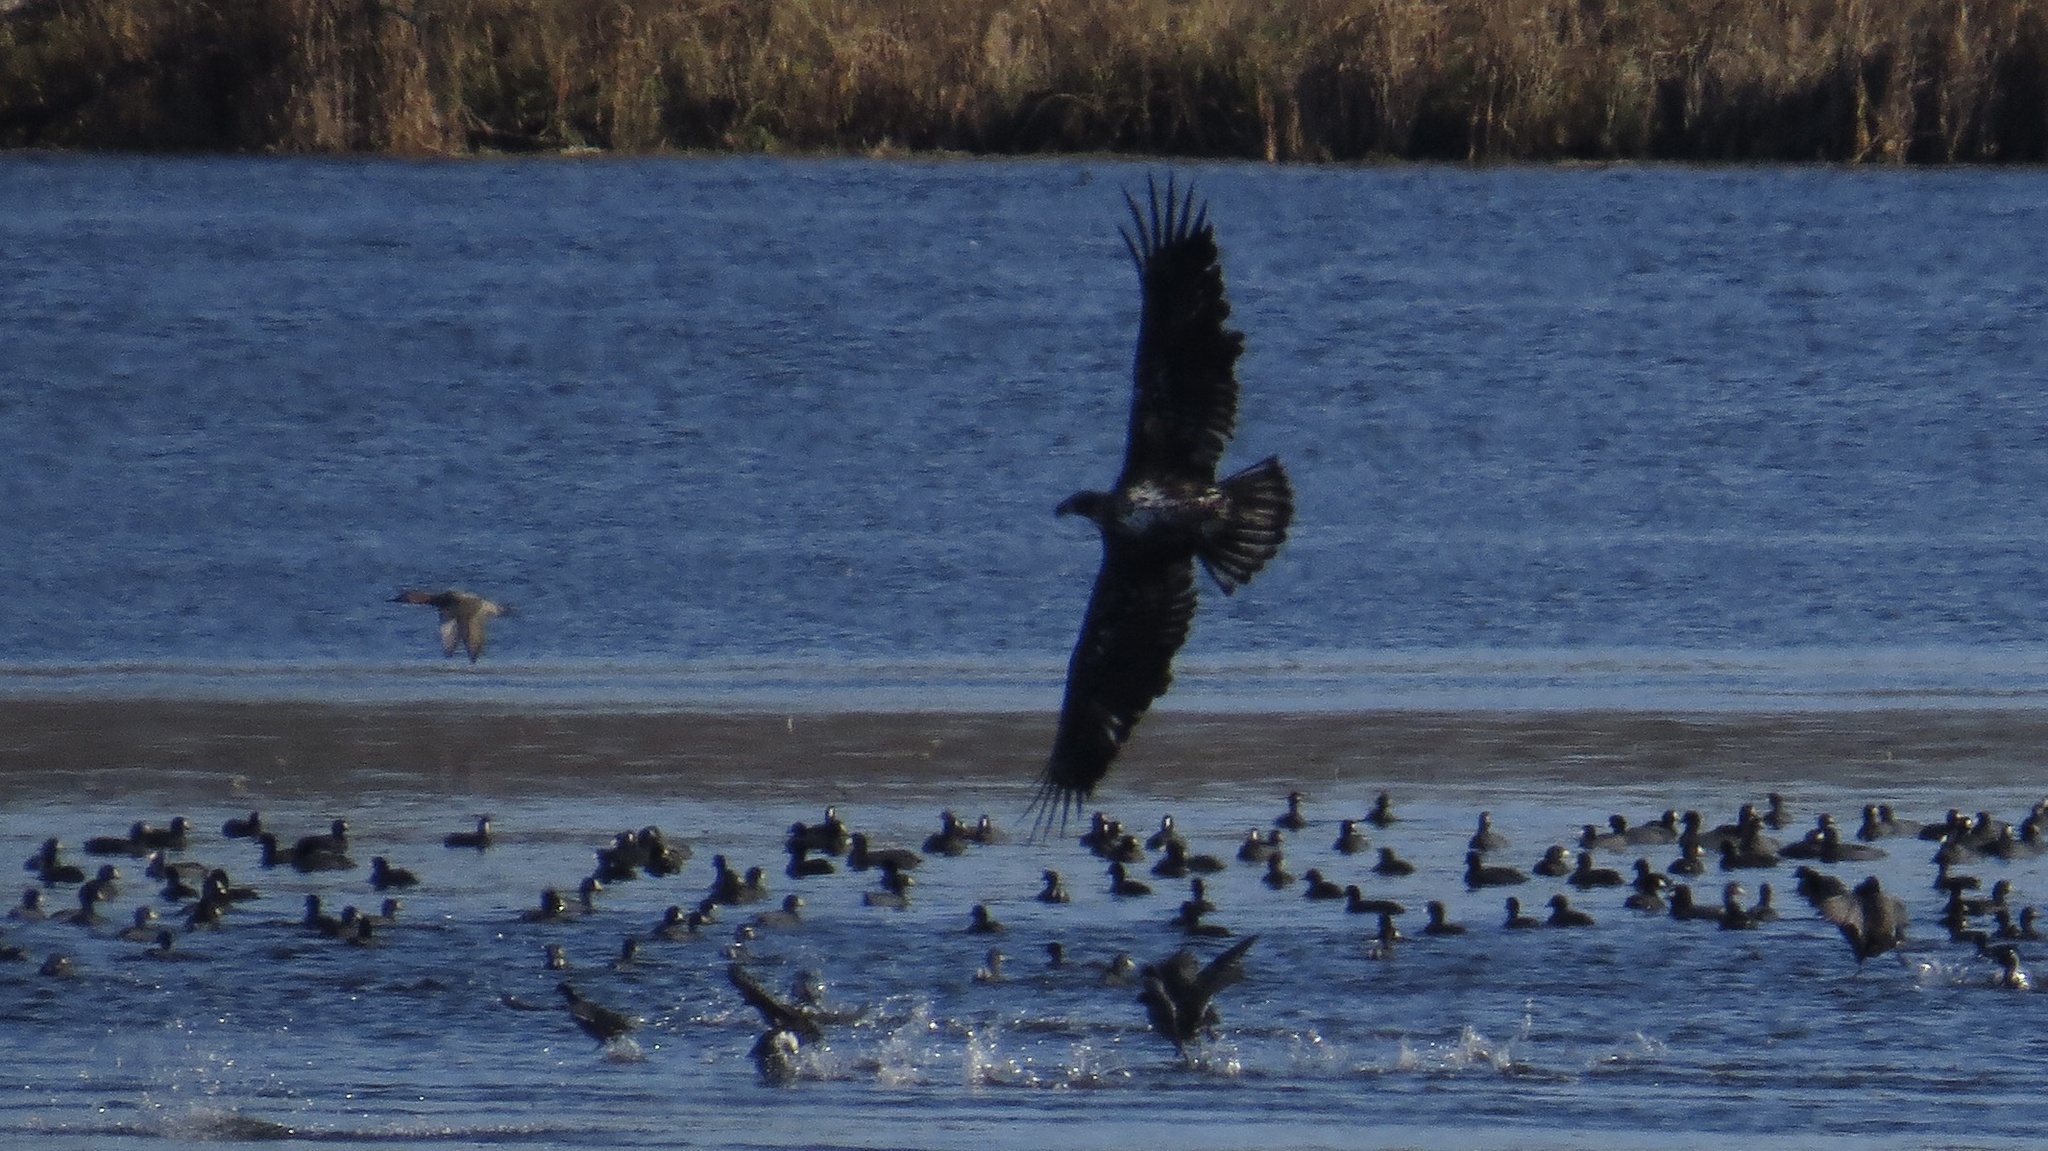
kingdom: Animalia
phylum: Chordata
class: Aves
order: Accipitriformes
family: Accipitridae
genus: Haliaeetus
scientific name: Haliaeetus leucocephalus
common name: Bald eagle
